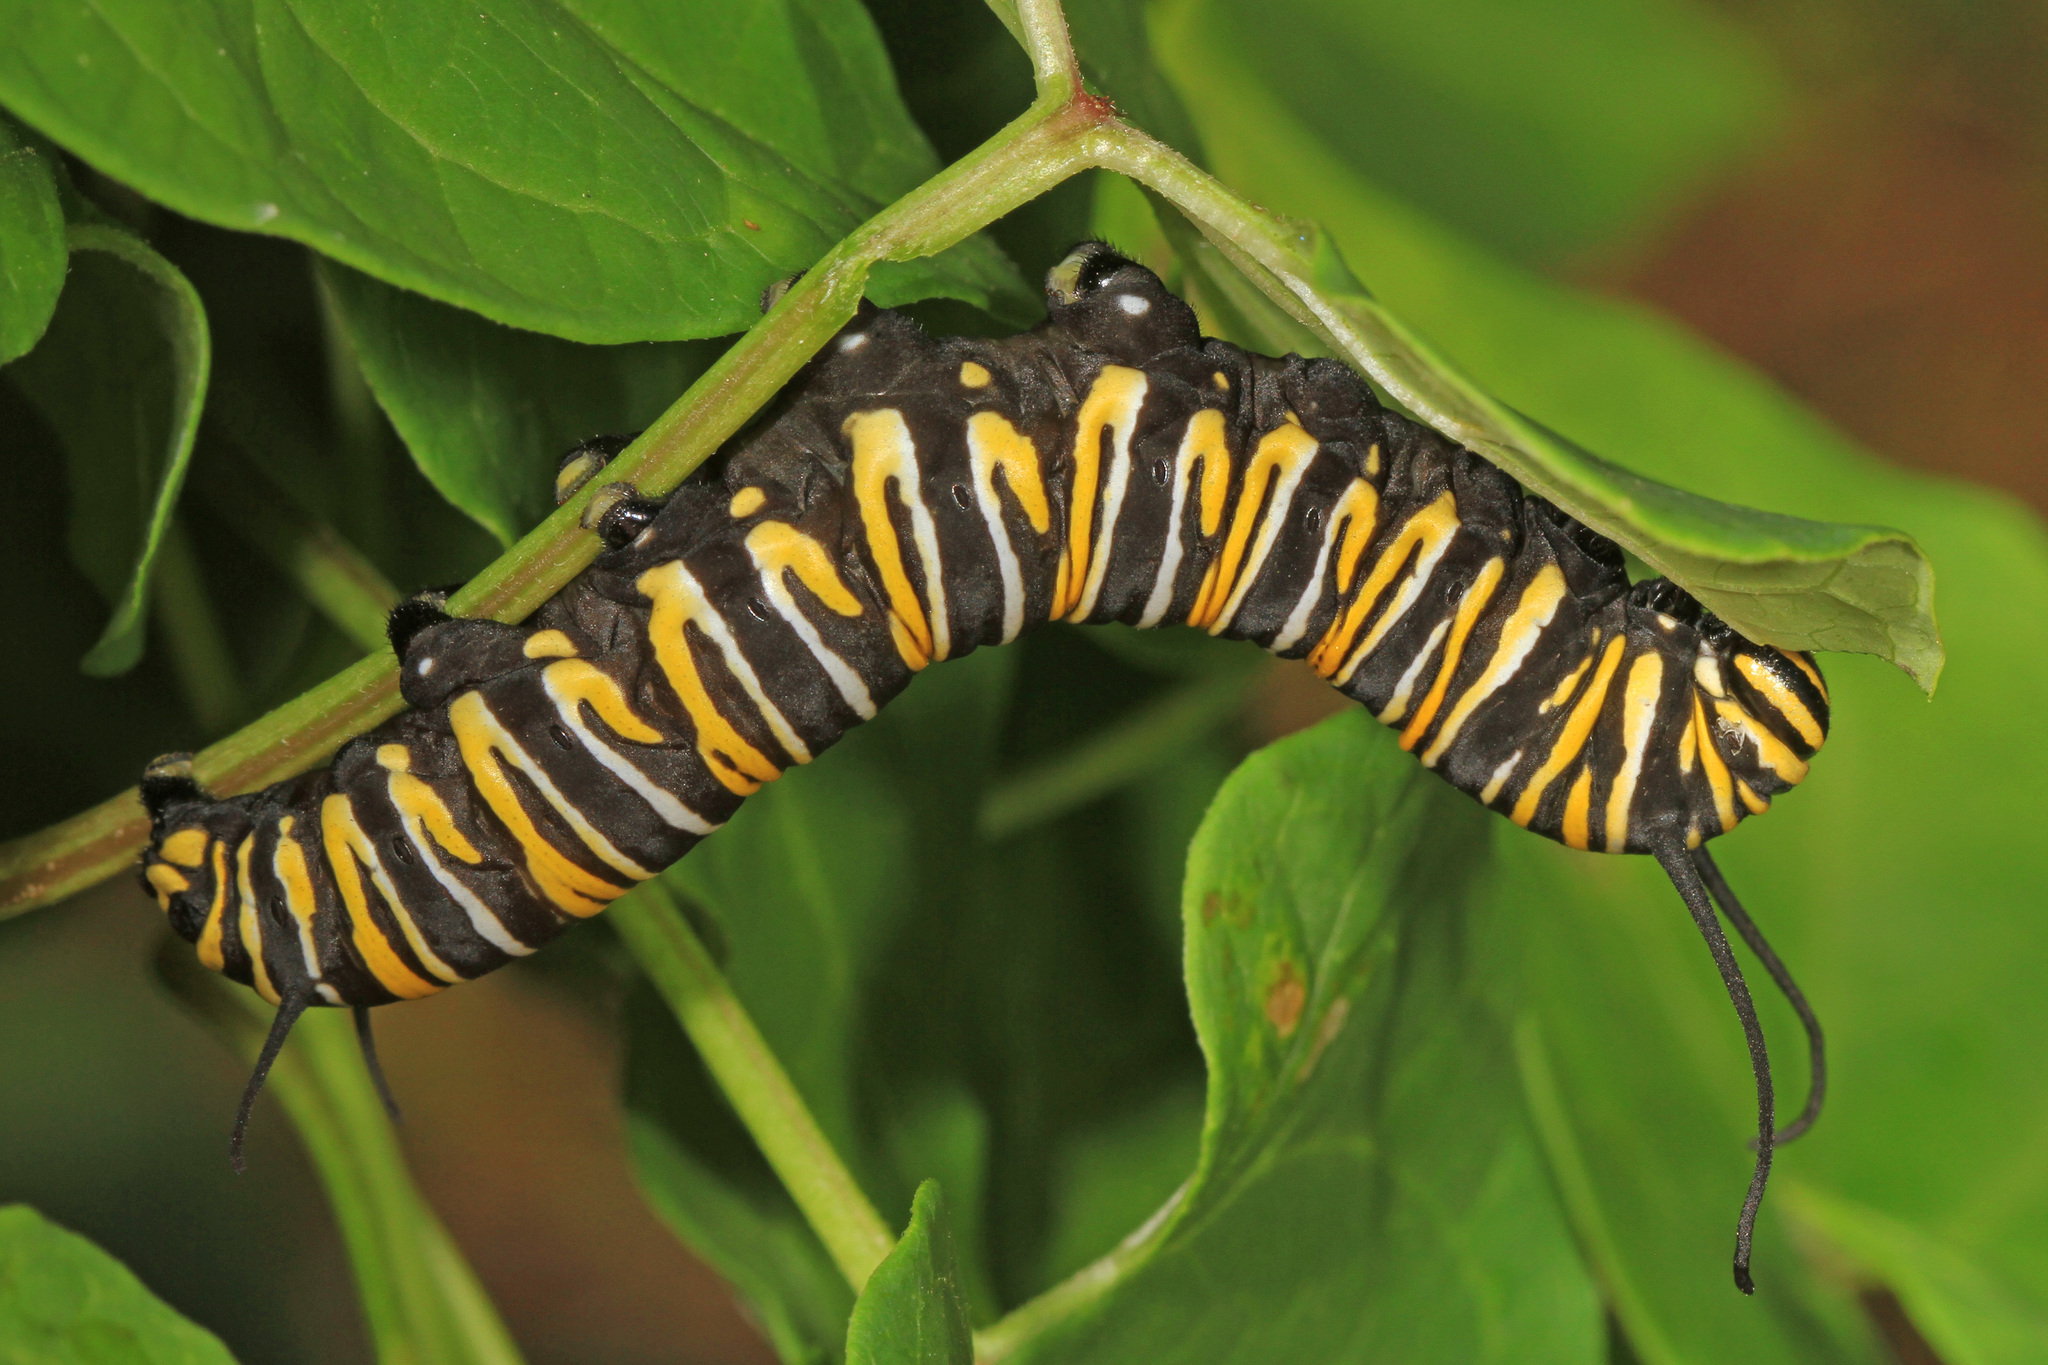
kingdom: Animalia
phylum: Arthropoda
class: Insecta
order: Lepidoptera
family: Nymphalidae
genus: Danaus
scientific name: Danaus plexippus
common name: Monarch
